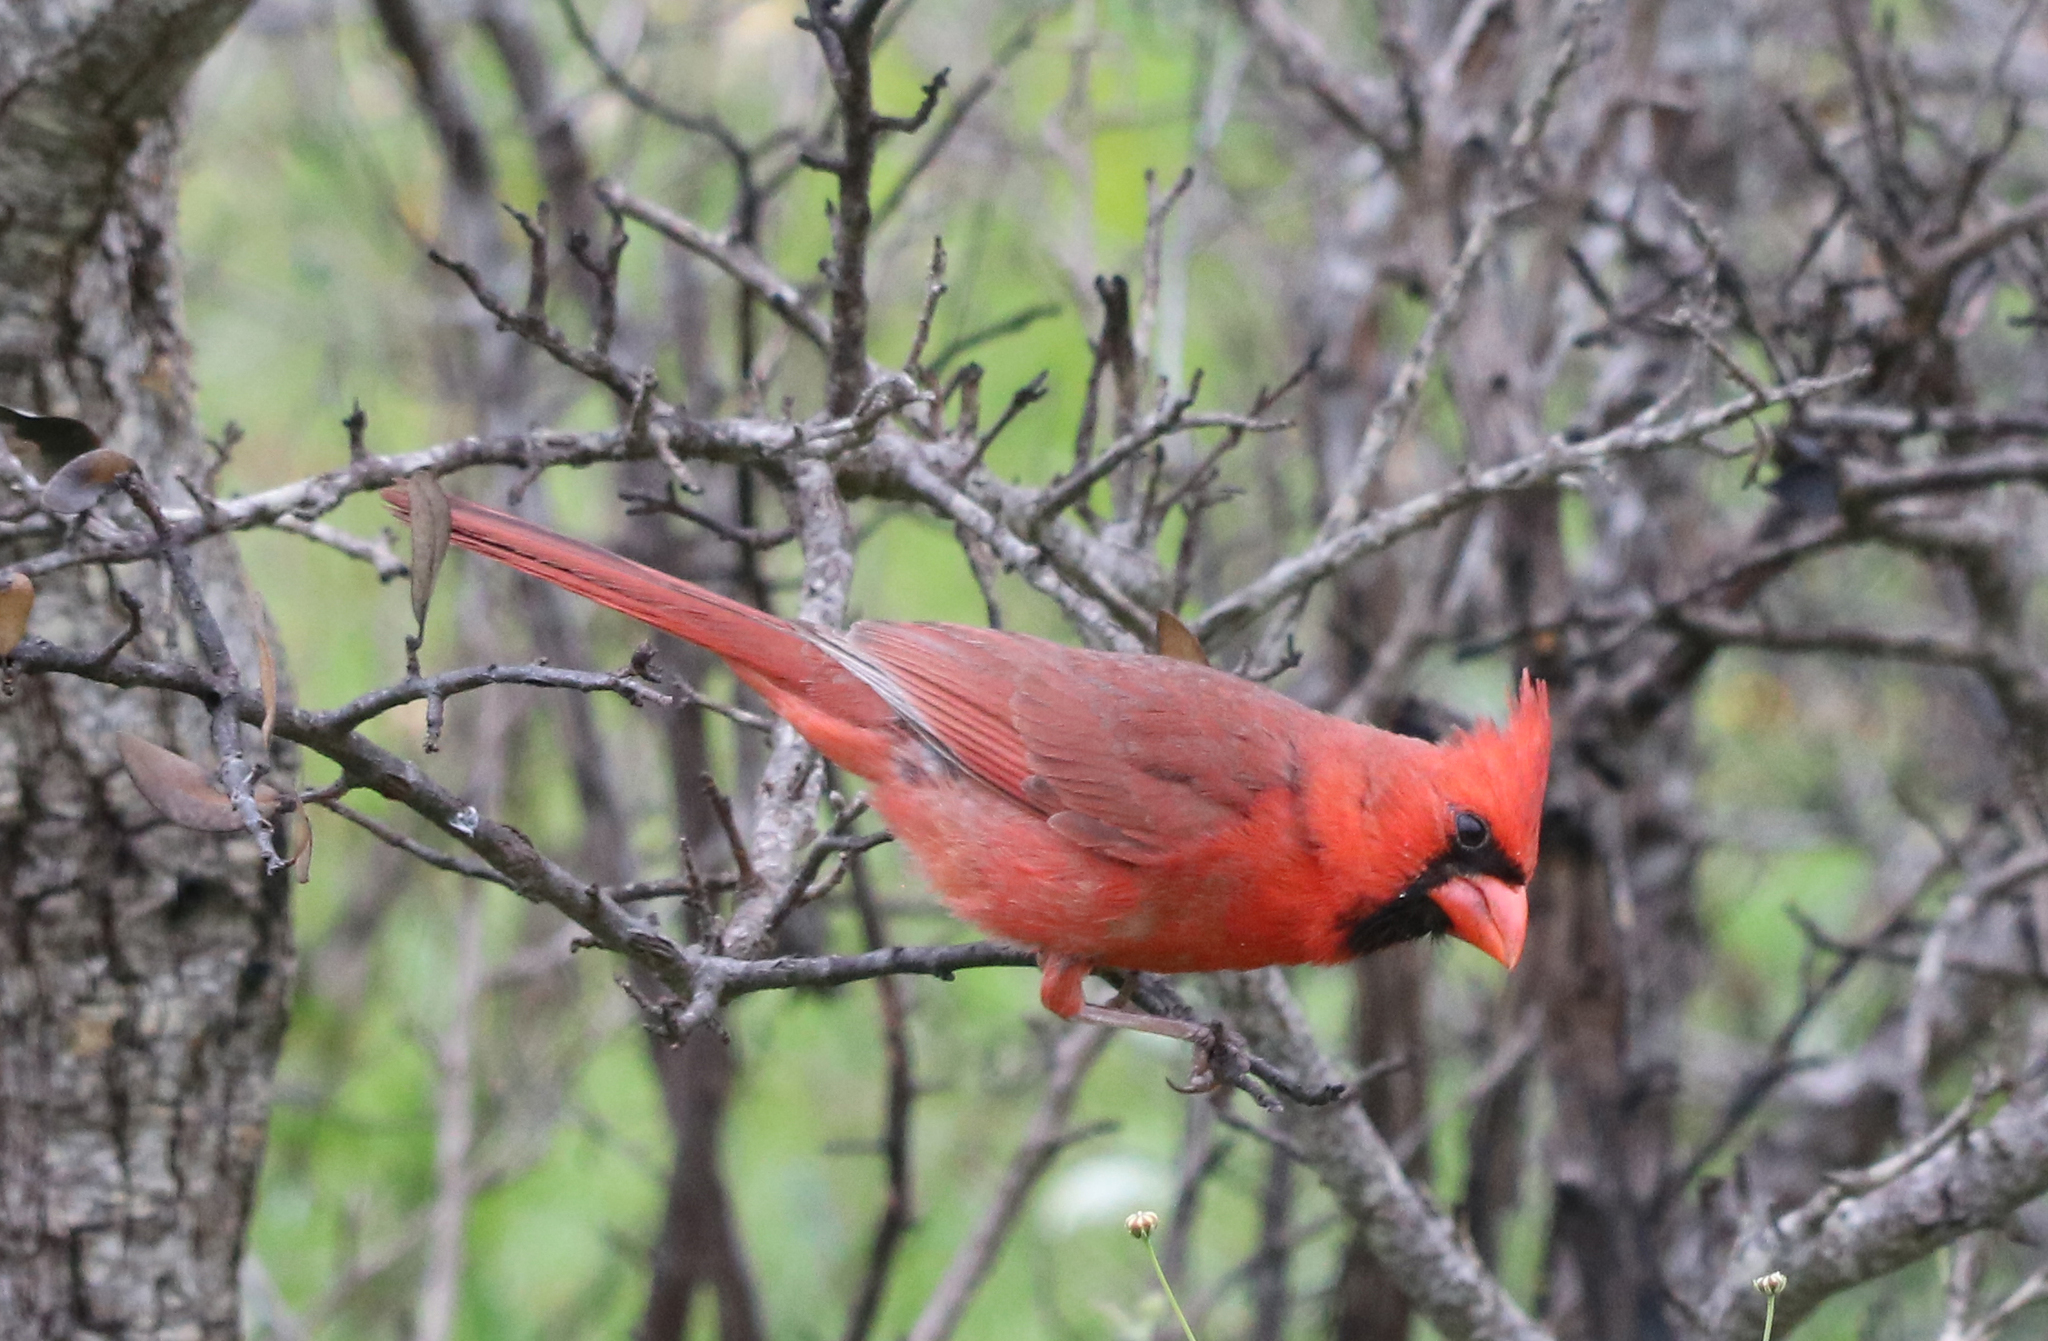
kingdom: Animalia
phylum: Chordata
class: Aves
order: Passeriformes
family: Cardinalidae
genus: Cardinalis
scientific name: Cardinalis cardinalis
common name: Northern cardinal
